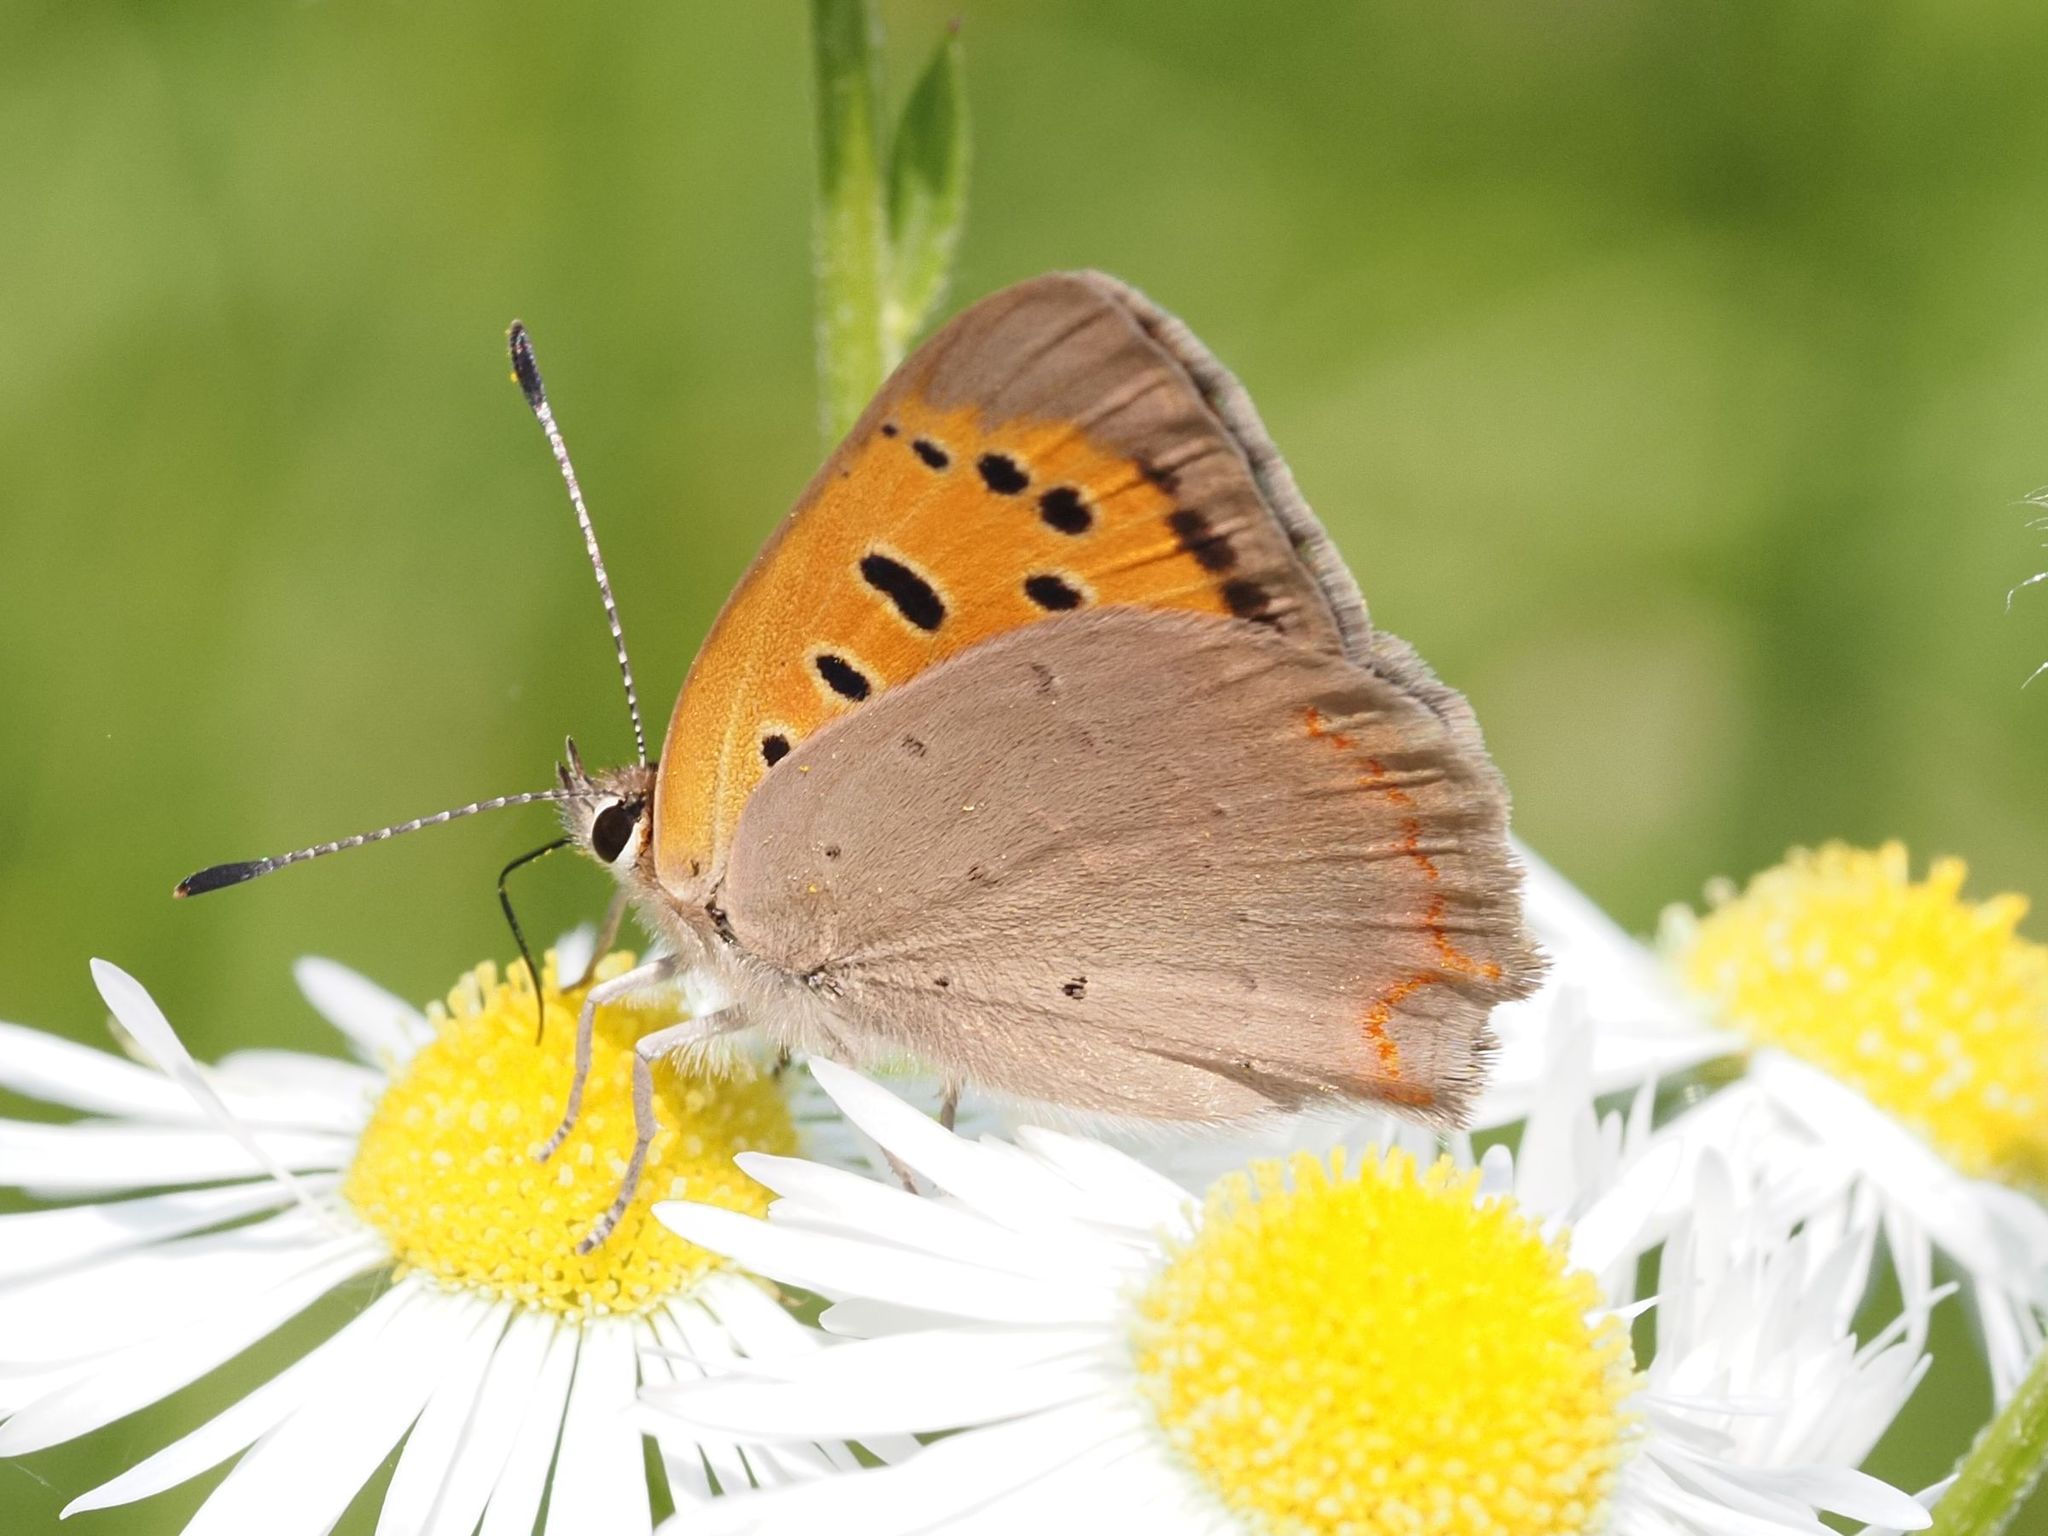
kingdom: Animalia
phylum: Arthropoda
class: Insecta
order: Lepidoptera
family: Lycaenidae
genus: Lycaena
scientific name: Lycaena phlaeas
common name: Small copper
